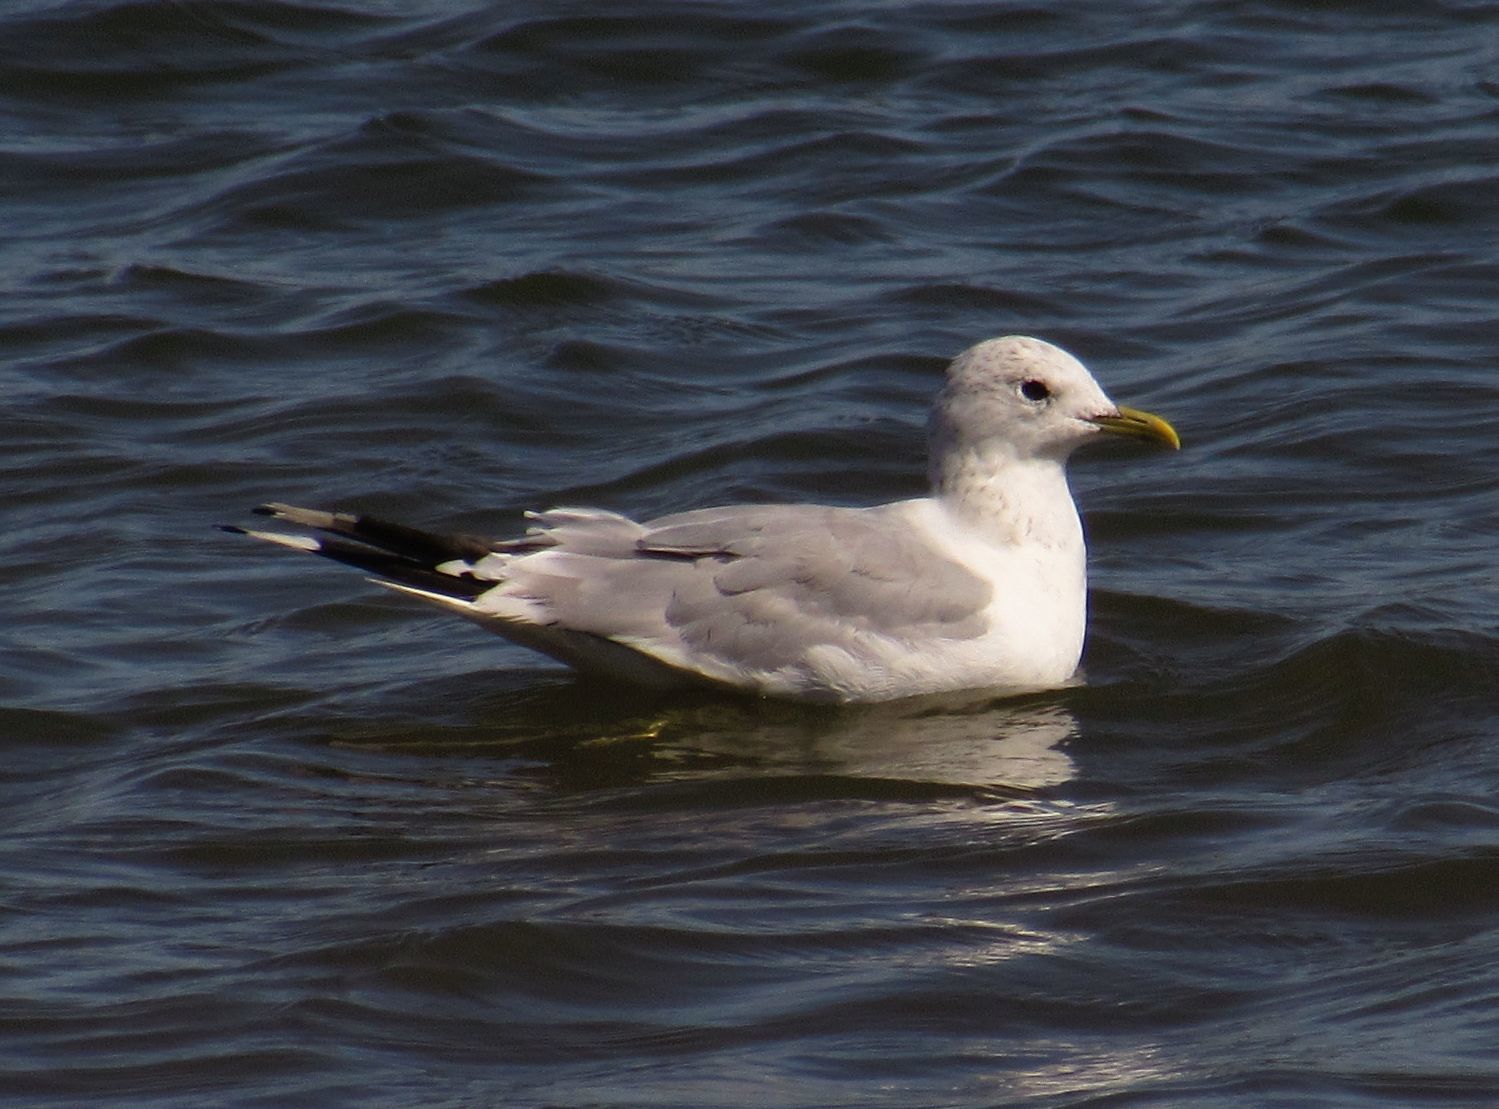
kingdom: Animalia
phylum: Chordata
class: Aves
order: Charadriiformes
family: Laridae
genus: Larus
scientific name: Larus canus
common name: Mew gull
